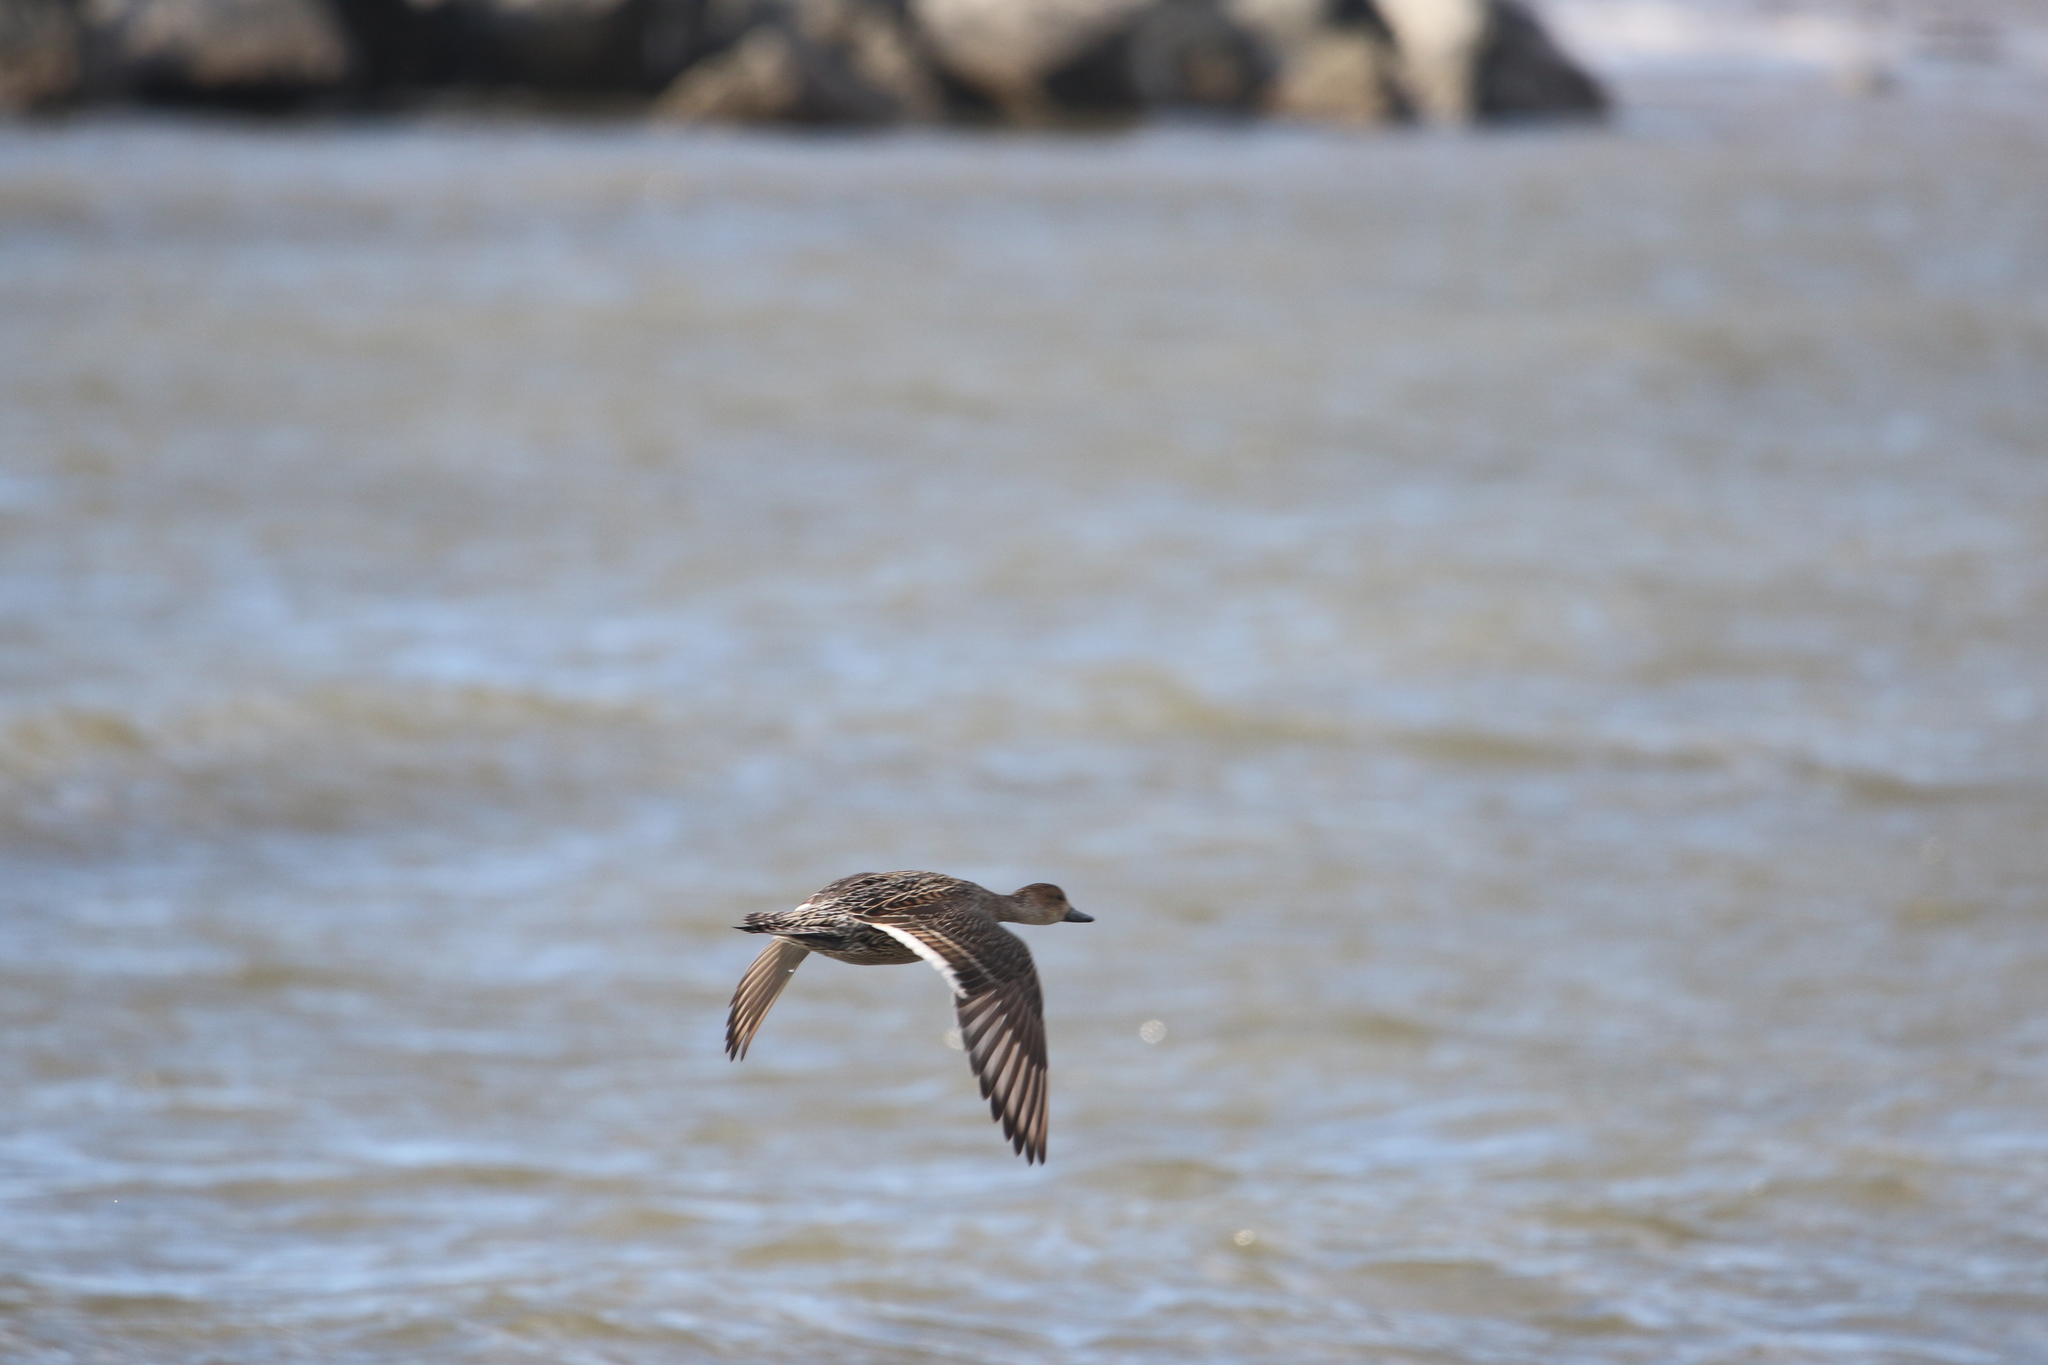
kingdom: Animalia
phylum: Chordata
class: Aves
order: Anseriformes
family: Anatidae
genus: Anas
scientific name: Anas acuta
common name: Northern pintail
